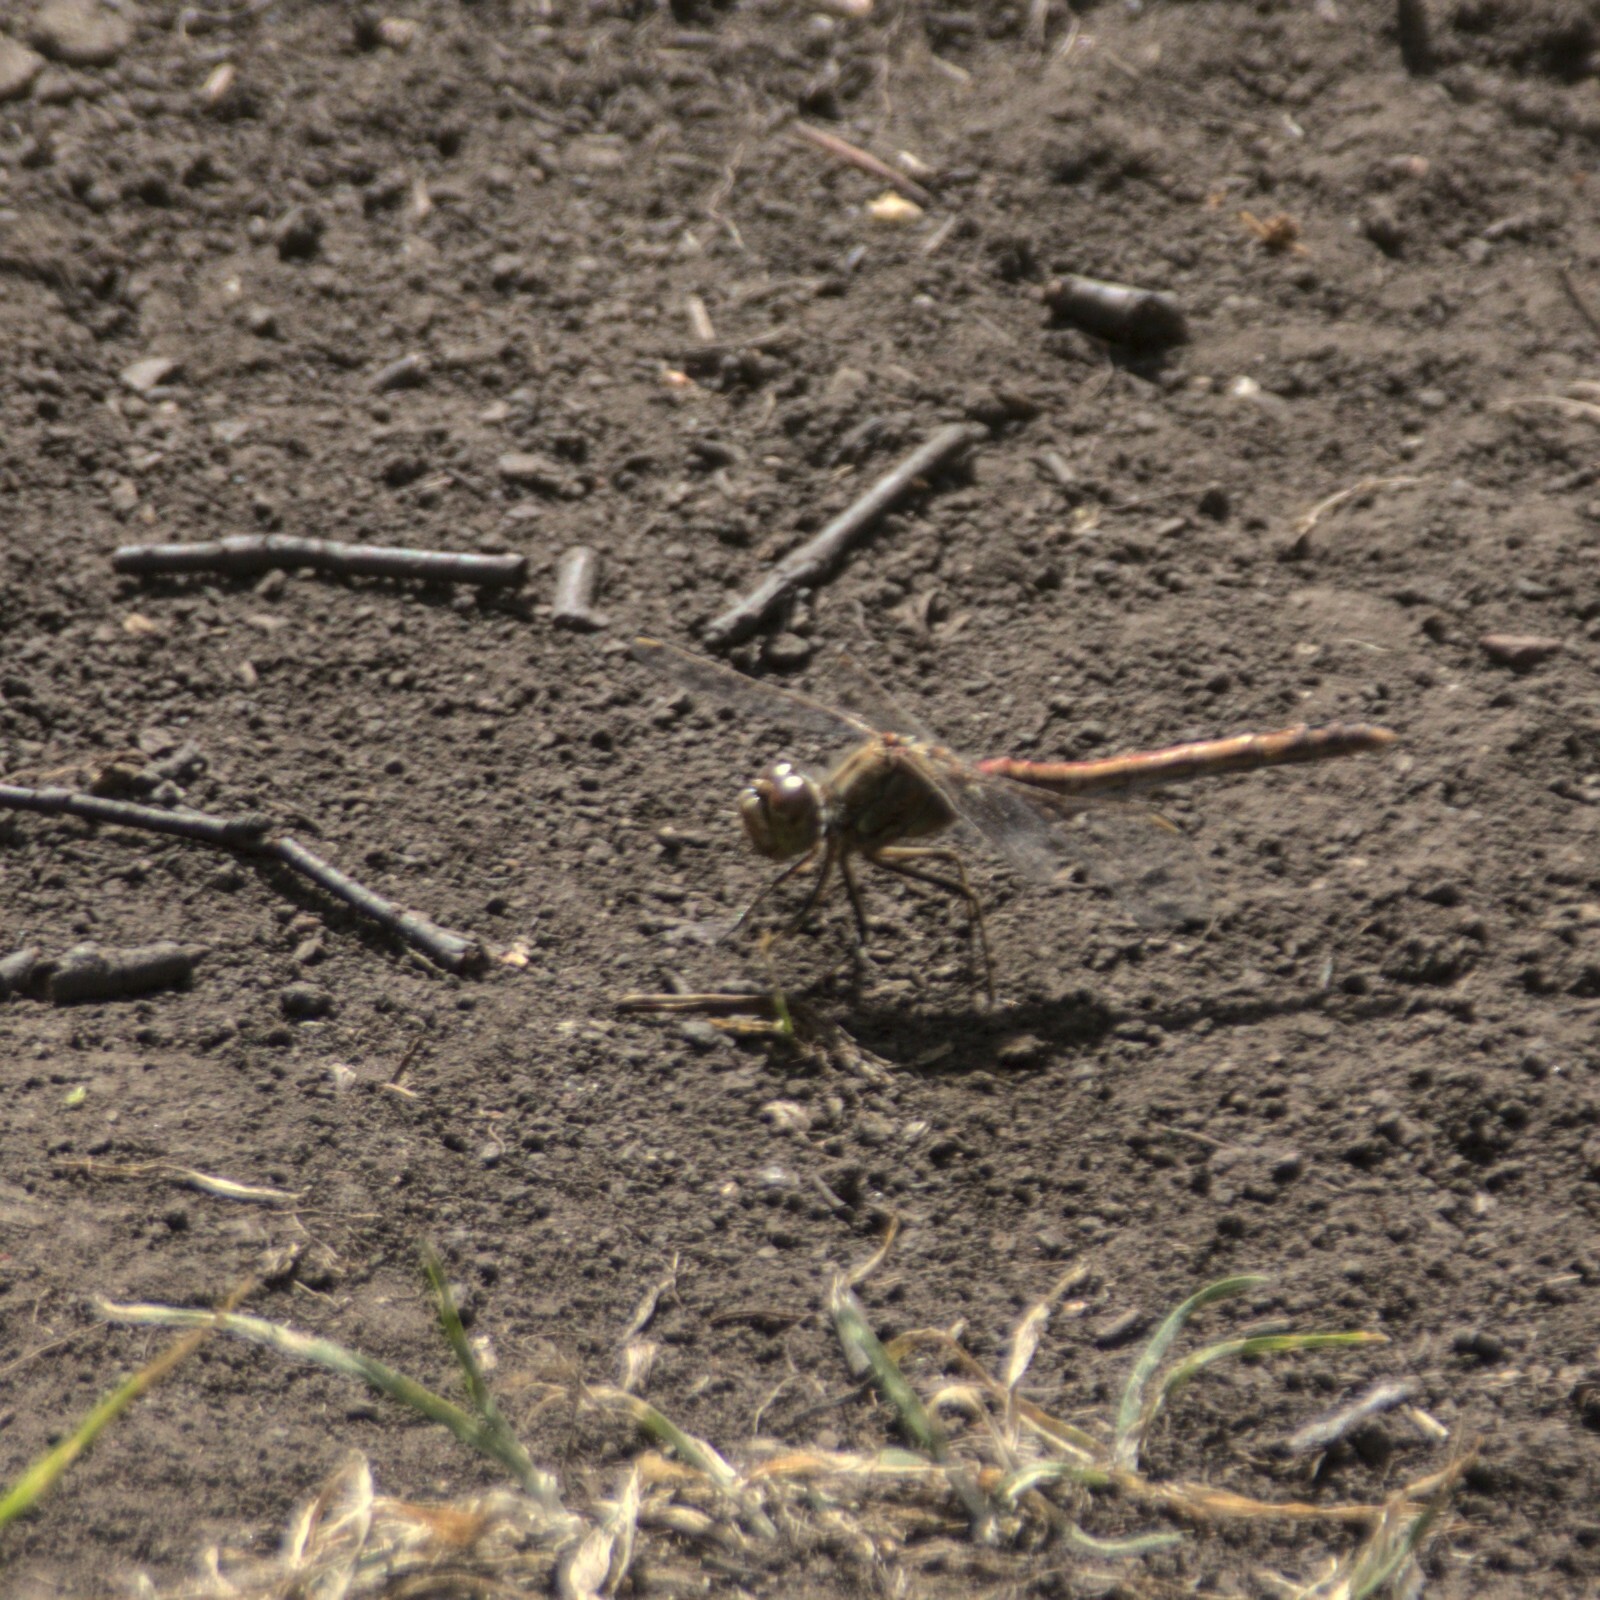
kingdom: Animalia
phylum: Arthropoda
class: Insecta
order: Odonata
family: Libellulidae
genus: Sympetrum
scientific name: Sympetrum vulgatum
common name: Vagrant darter
